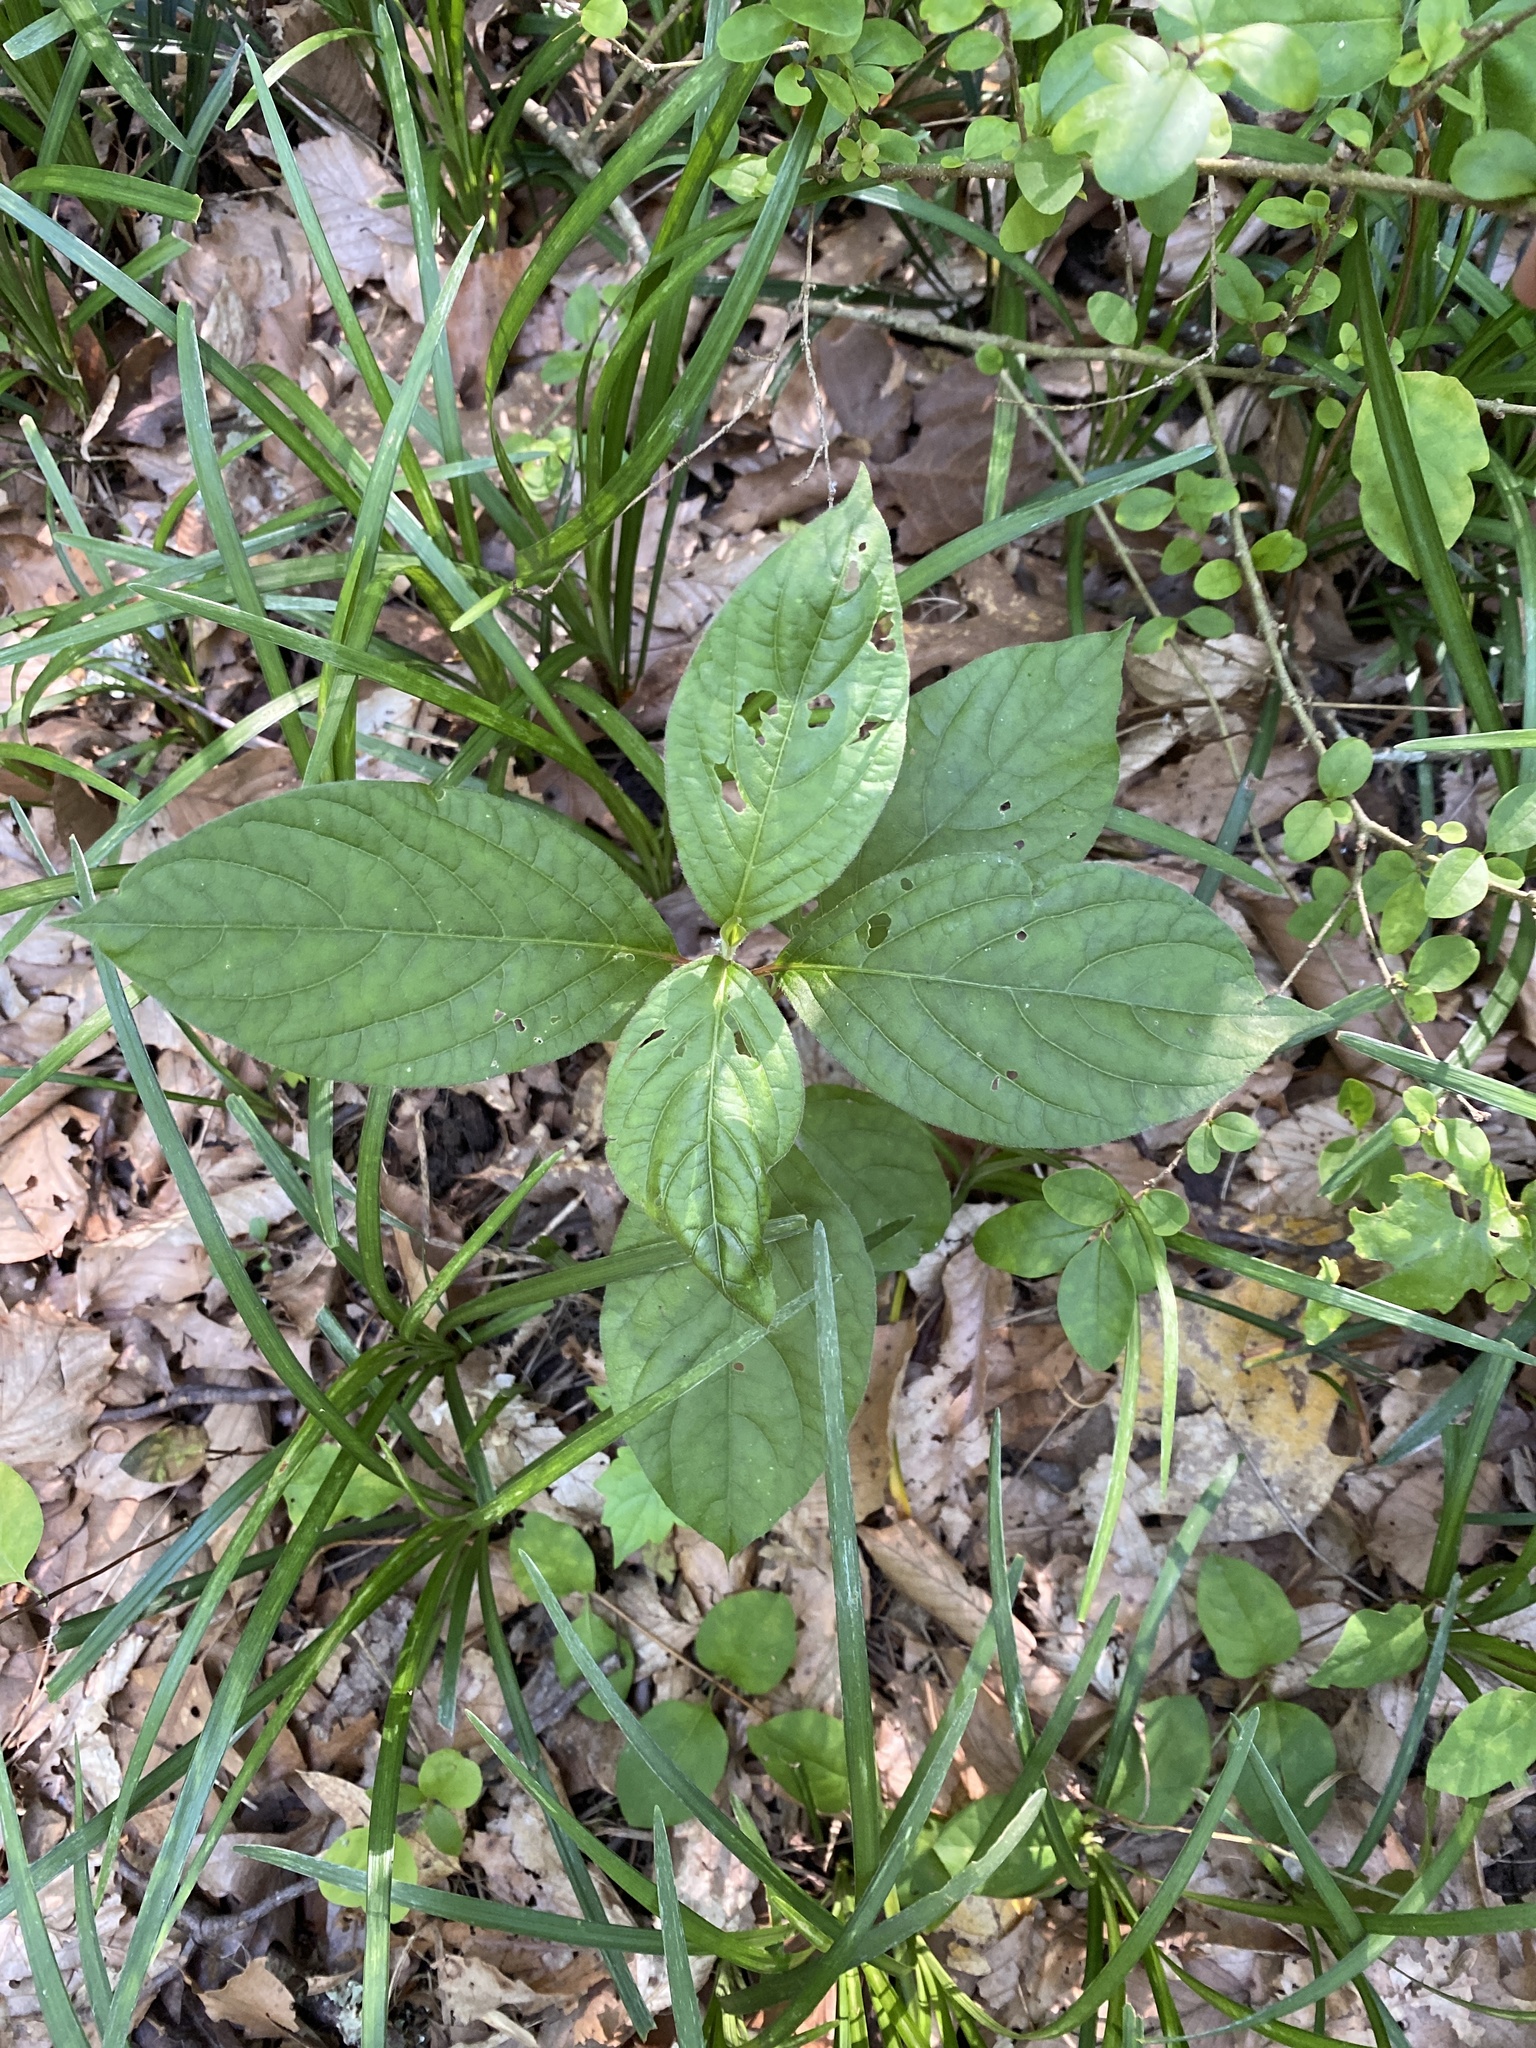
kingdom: Plantae
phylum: Tracheophyta
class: Magnoliopsida
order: Caryophyllales
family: Amaranthaceae
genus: Achyranthes
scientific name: Achyranthes bidentata
